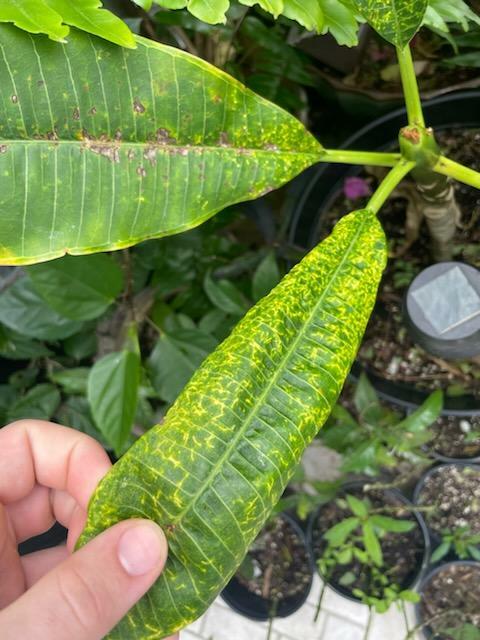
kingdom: Fungi
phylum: Basidiomycota
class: Pucciniomycetes
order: Pucciniales
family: Coleosporiaceae
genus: Coleosporium
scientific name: Coleosporium plumeriae
